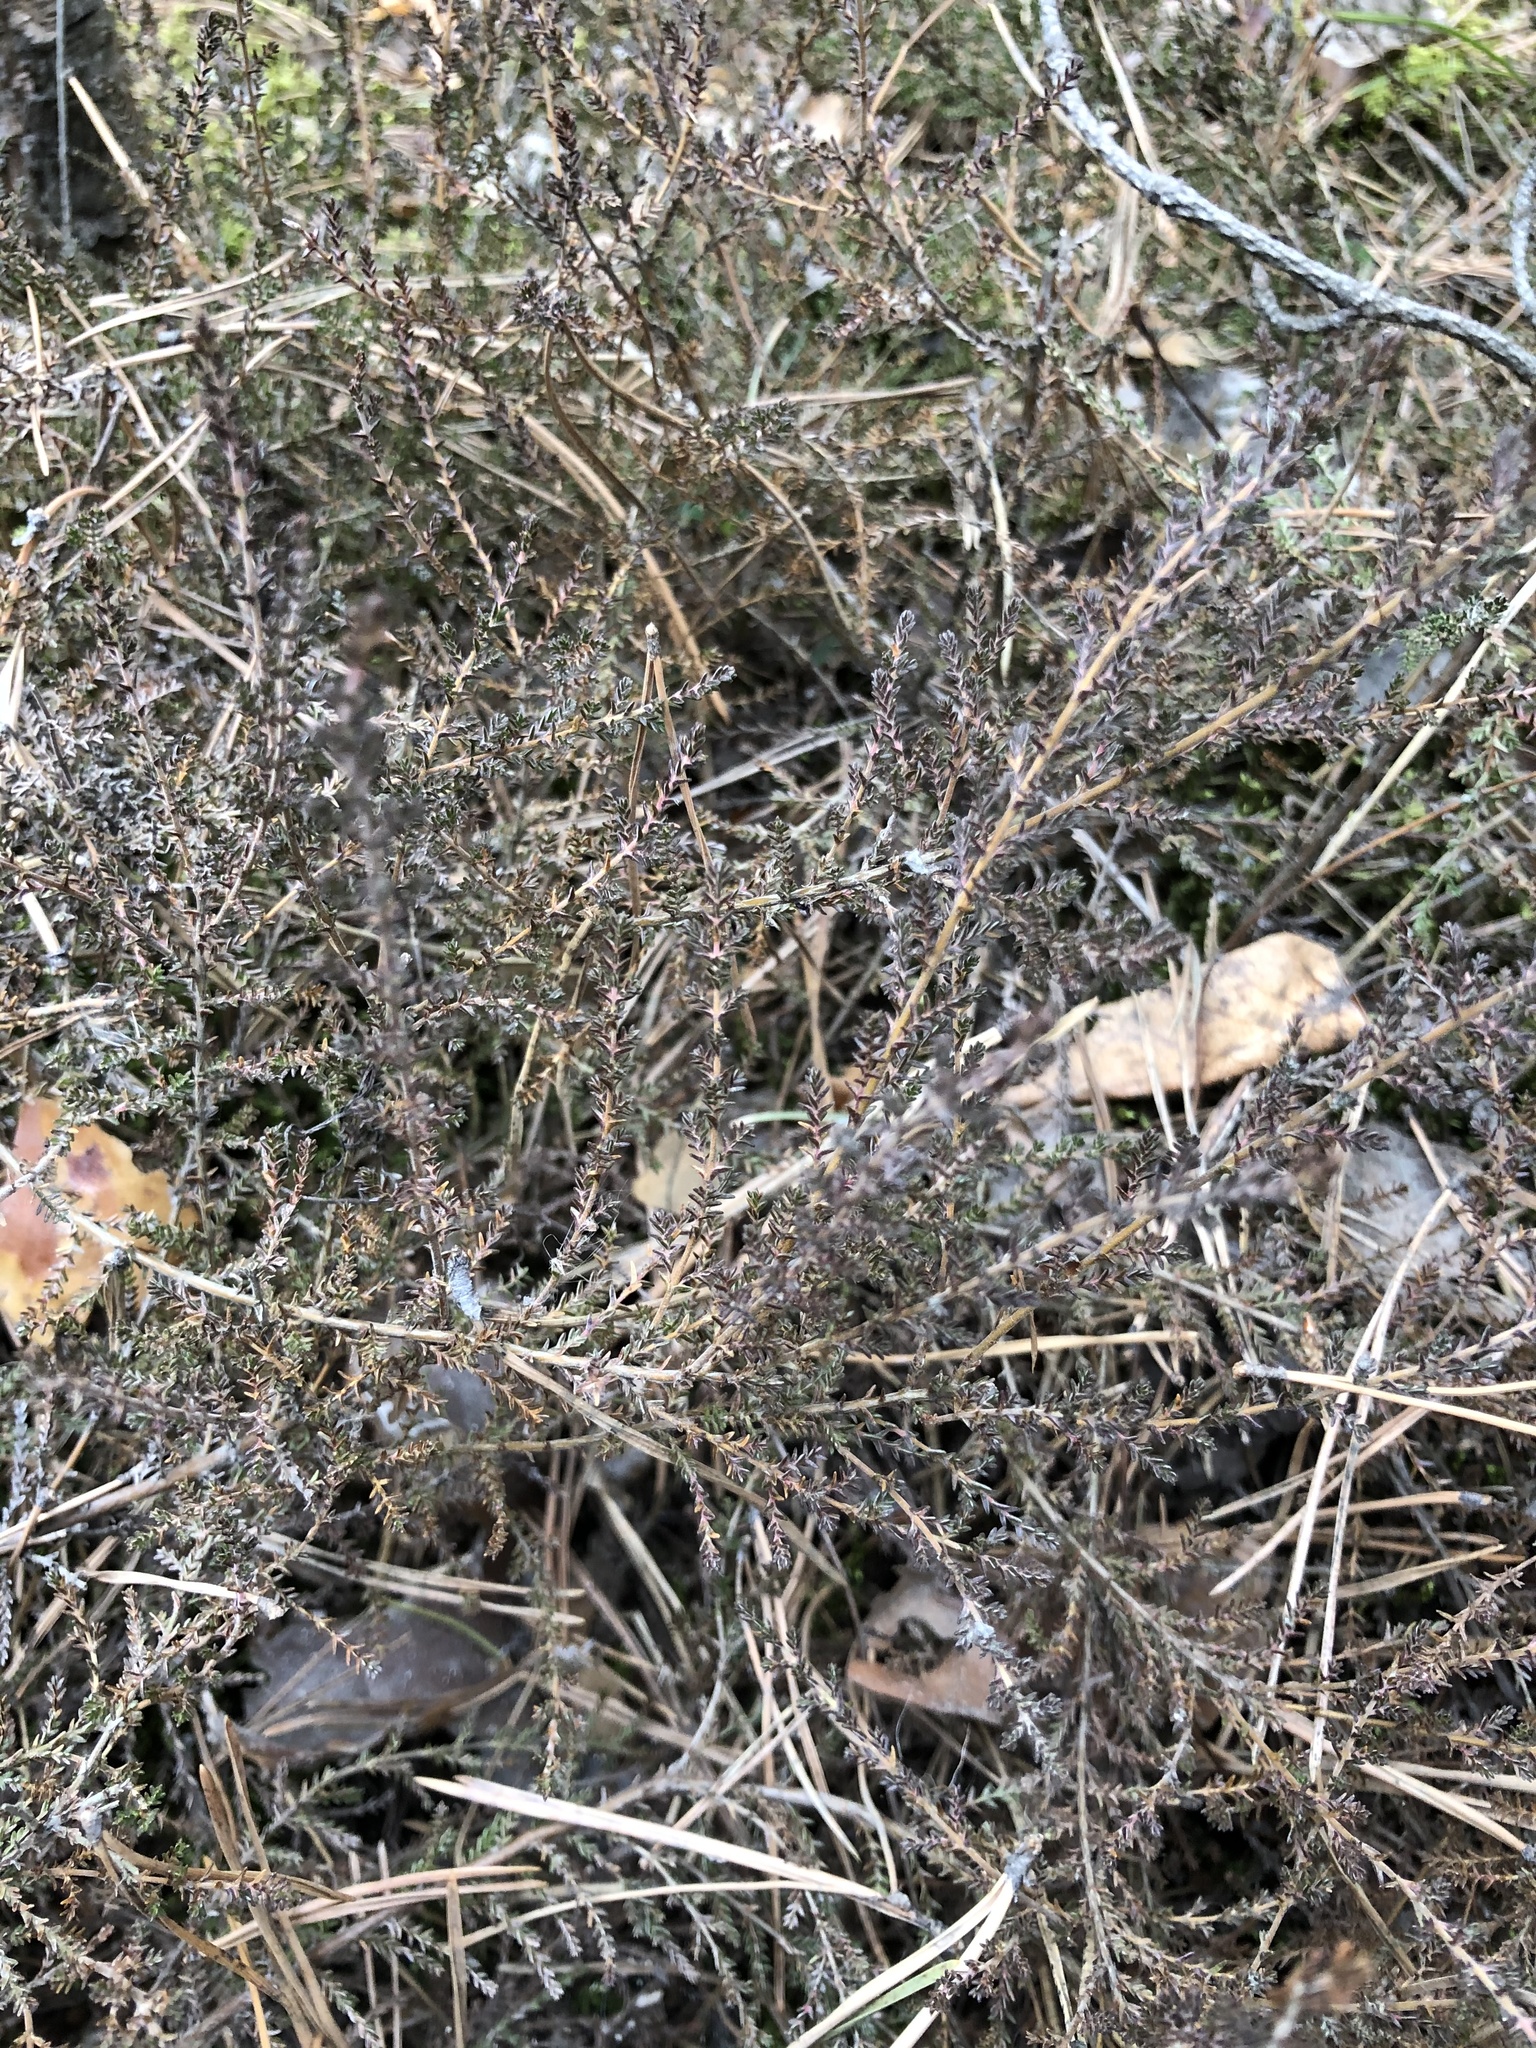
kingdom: Plantae
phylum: Tracheophyta
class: Magnoliopsida
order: Ericales
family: Ericaceae
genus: Calluna
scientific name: Calluna vulgaris
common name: Heather
